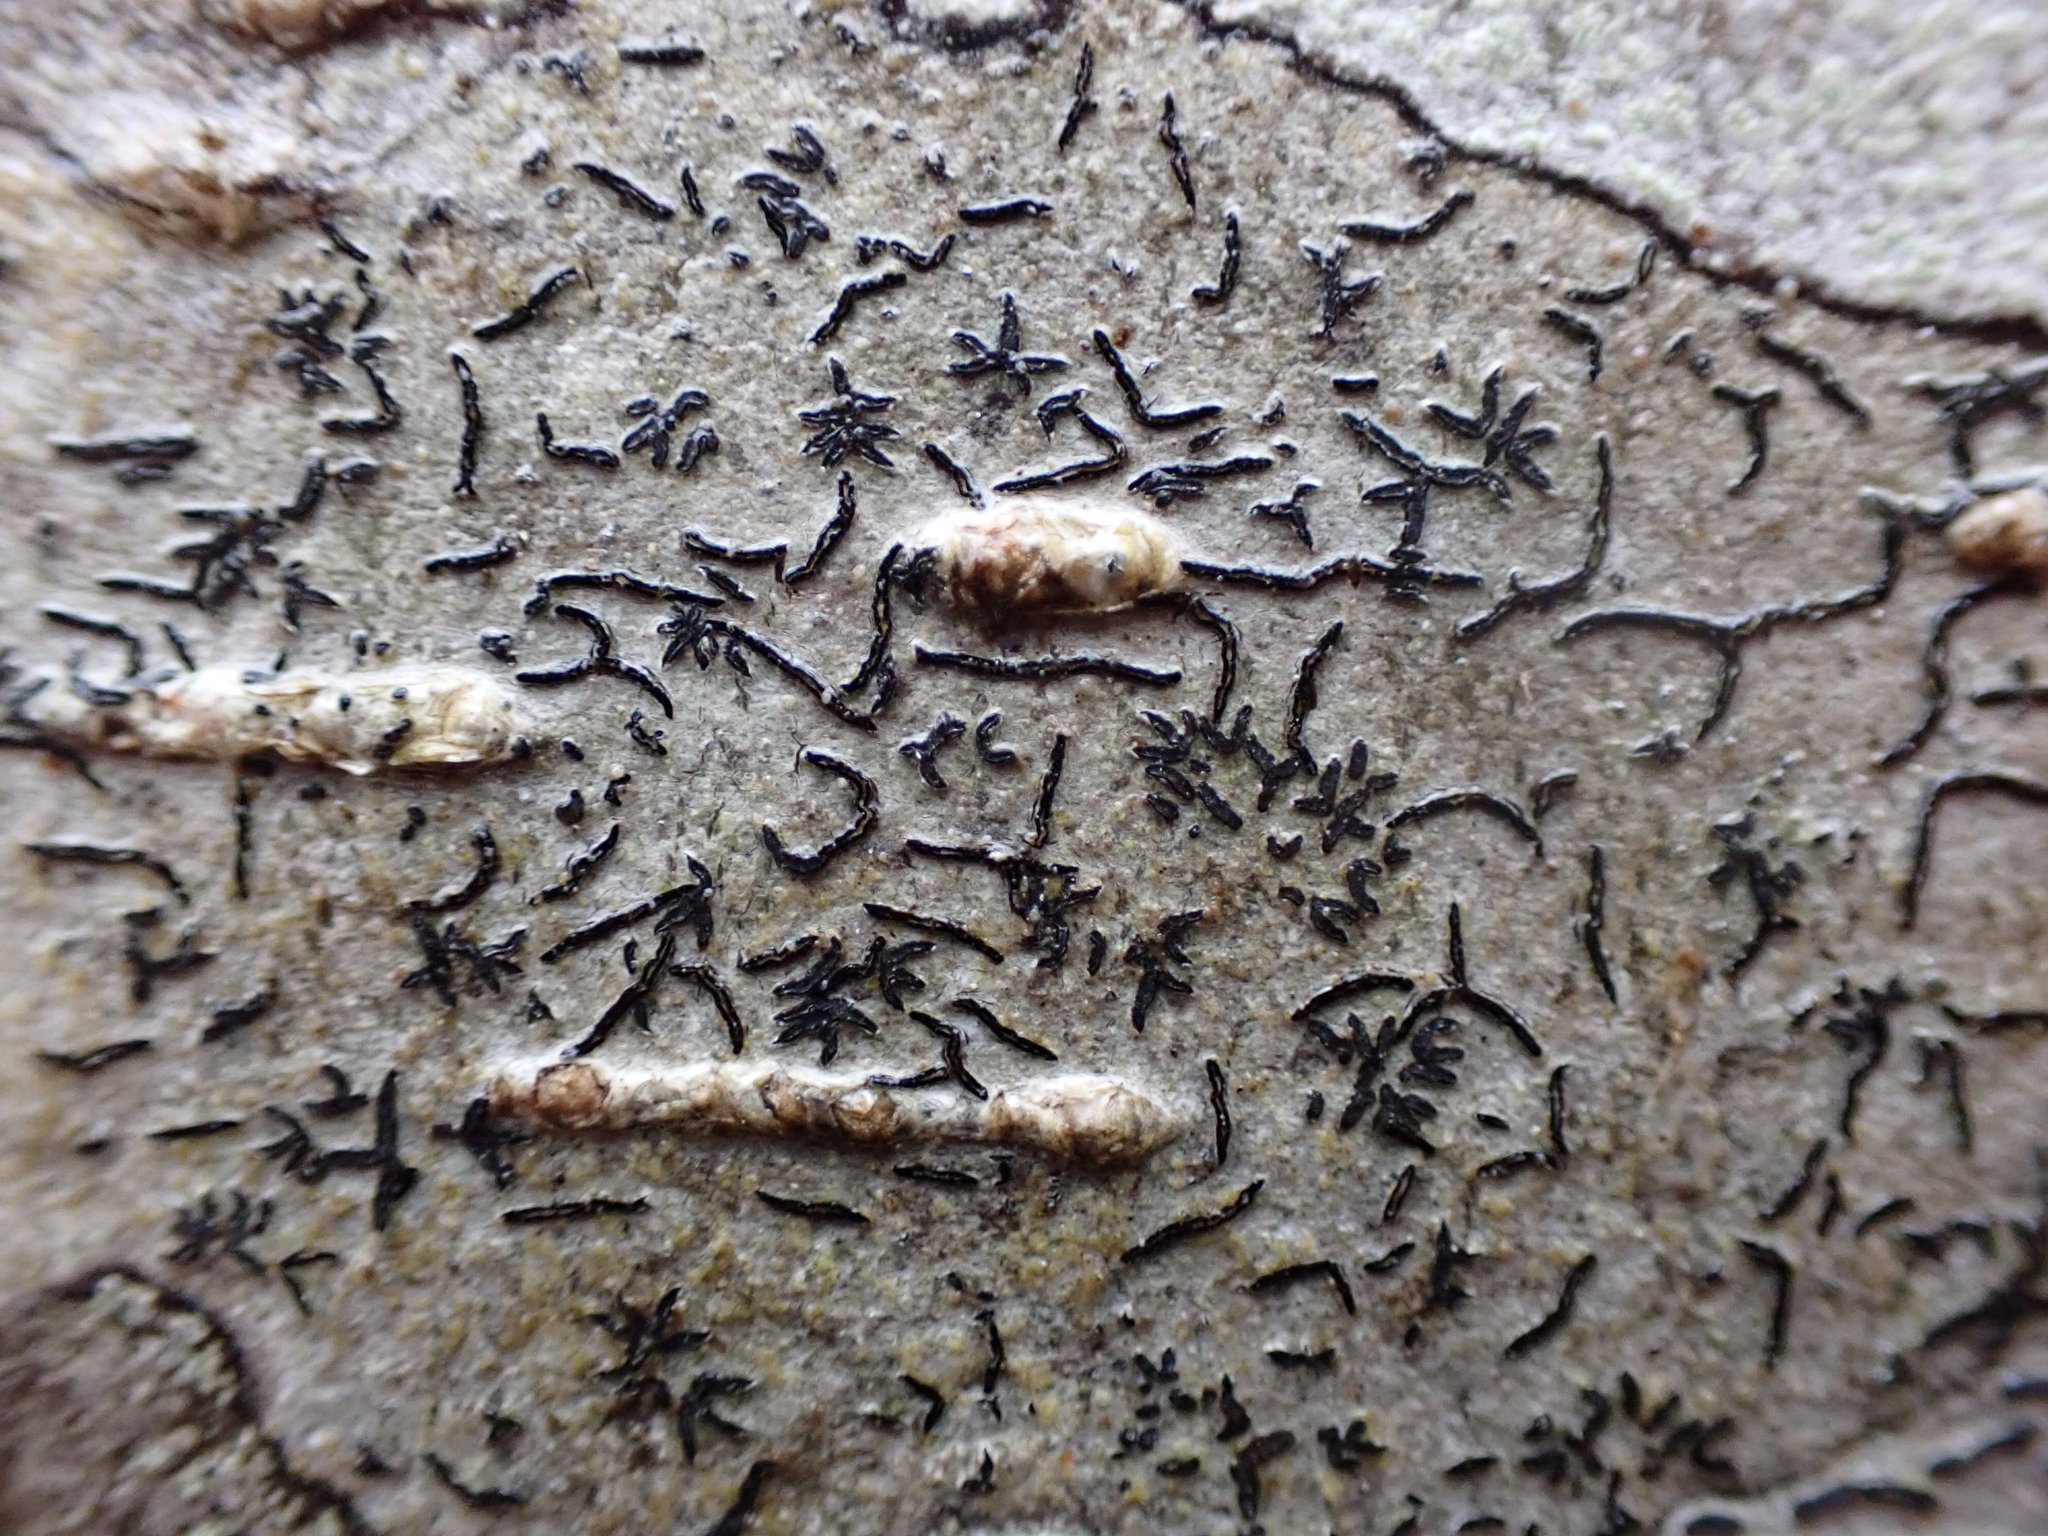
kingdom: Fungi
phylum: Ascomycota
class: Lecanoromycetes
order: Ostropales
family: Graphidaceae
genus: Graphis
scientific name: Graphis scripta
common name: Script lichen
